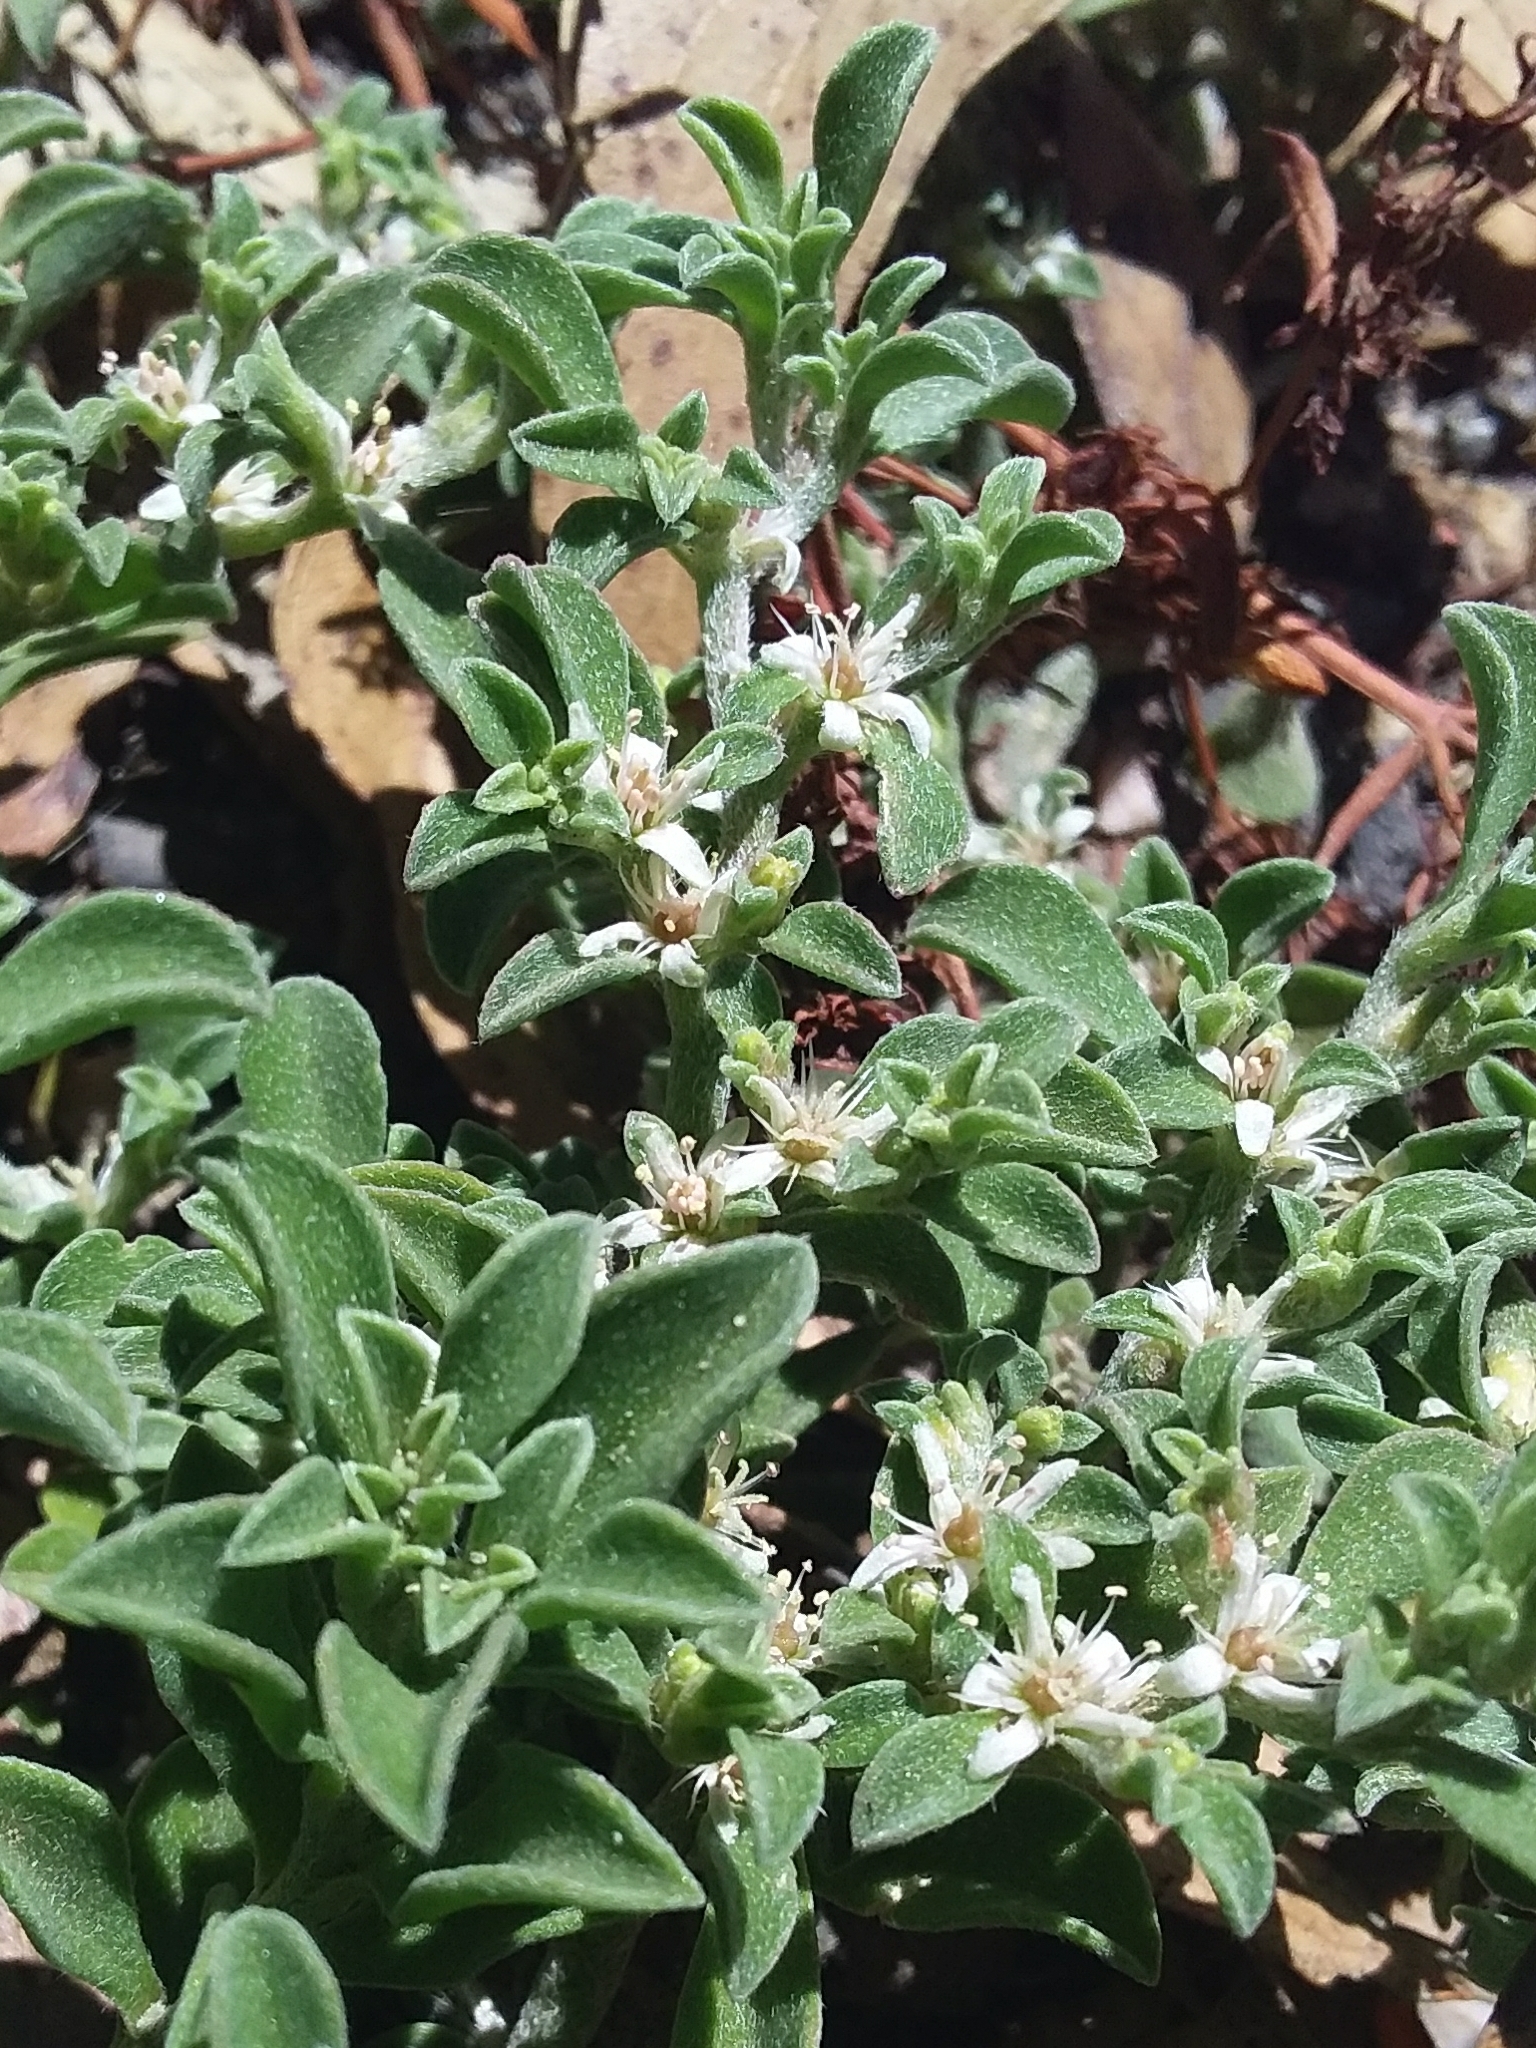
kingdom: Plantae
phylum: Tracheophyta
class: Magnoliopsida
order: Caryophyllales
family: Aizoaceae
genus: Aizoon
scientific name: Aizoon pubescens
